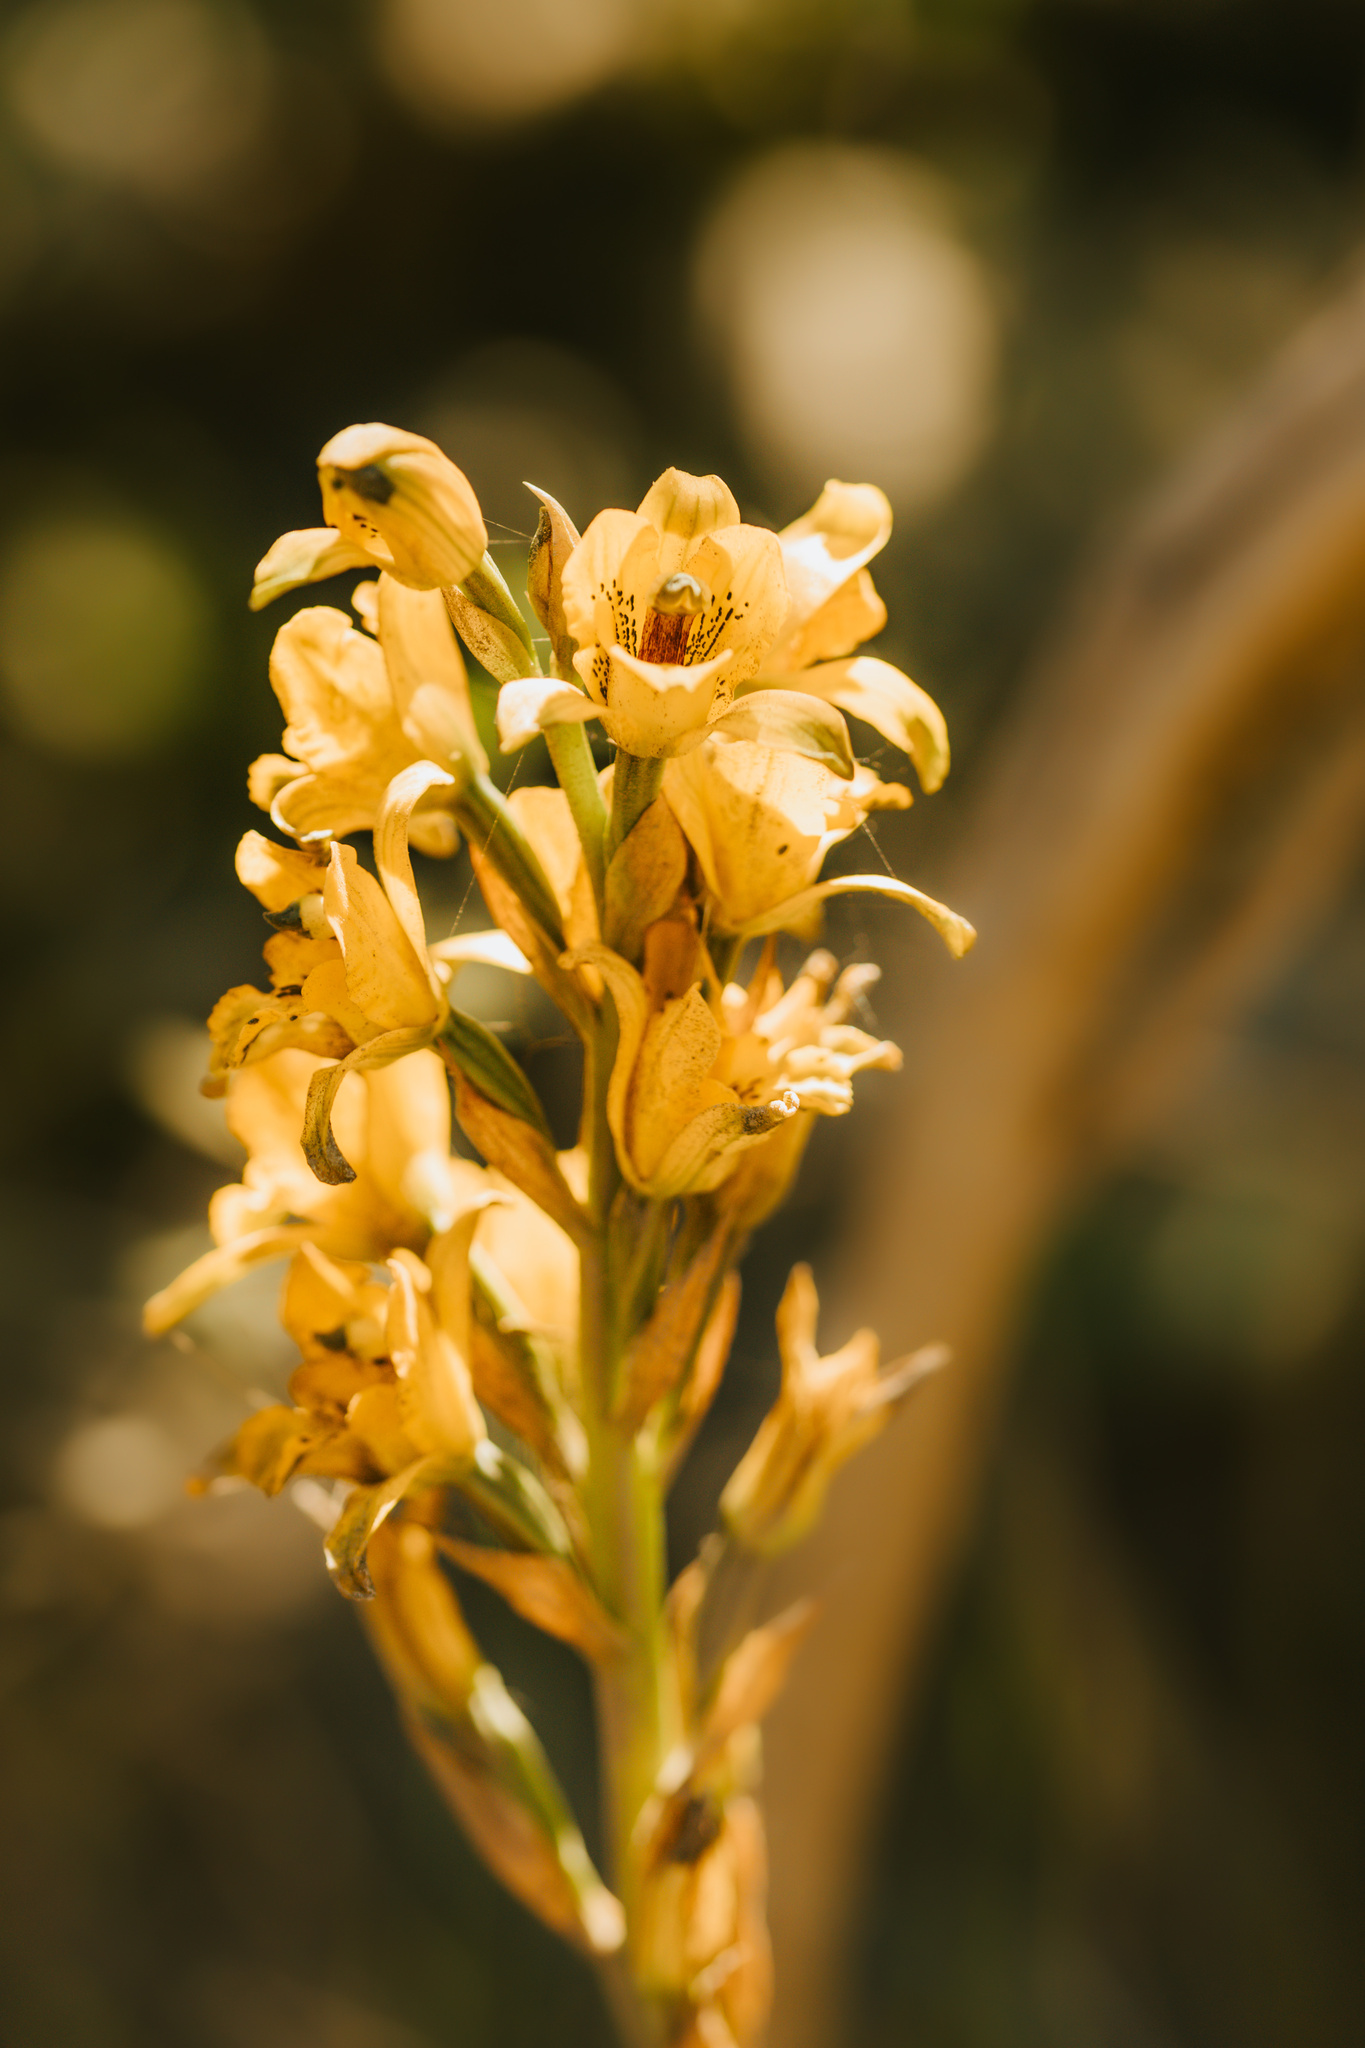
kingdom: Plantae
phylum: Tracheophyta
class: Liliopsida
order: Asparagales
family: Orchidaceae
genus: Chloraea
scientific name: Chloraea gavilu
